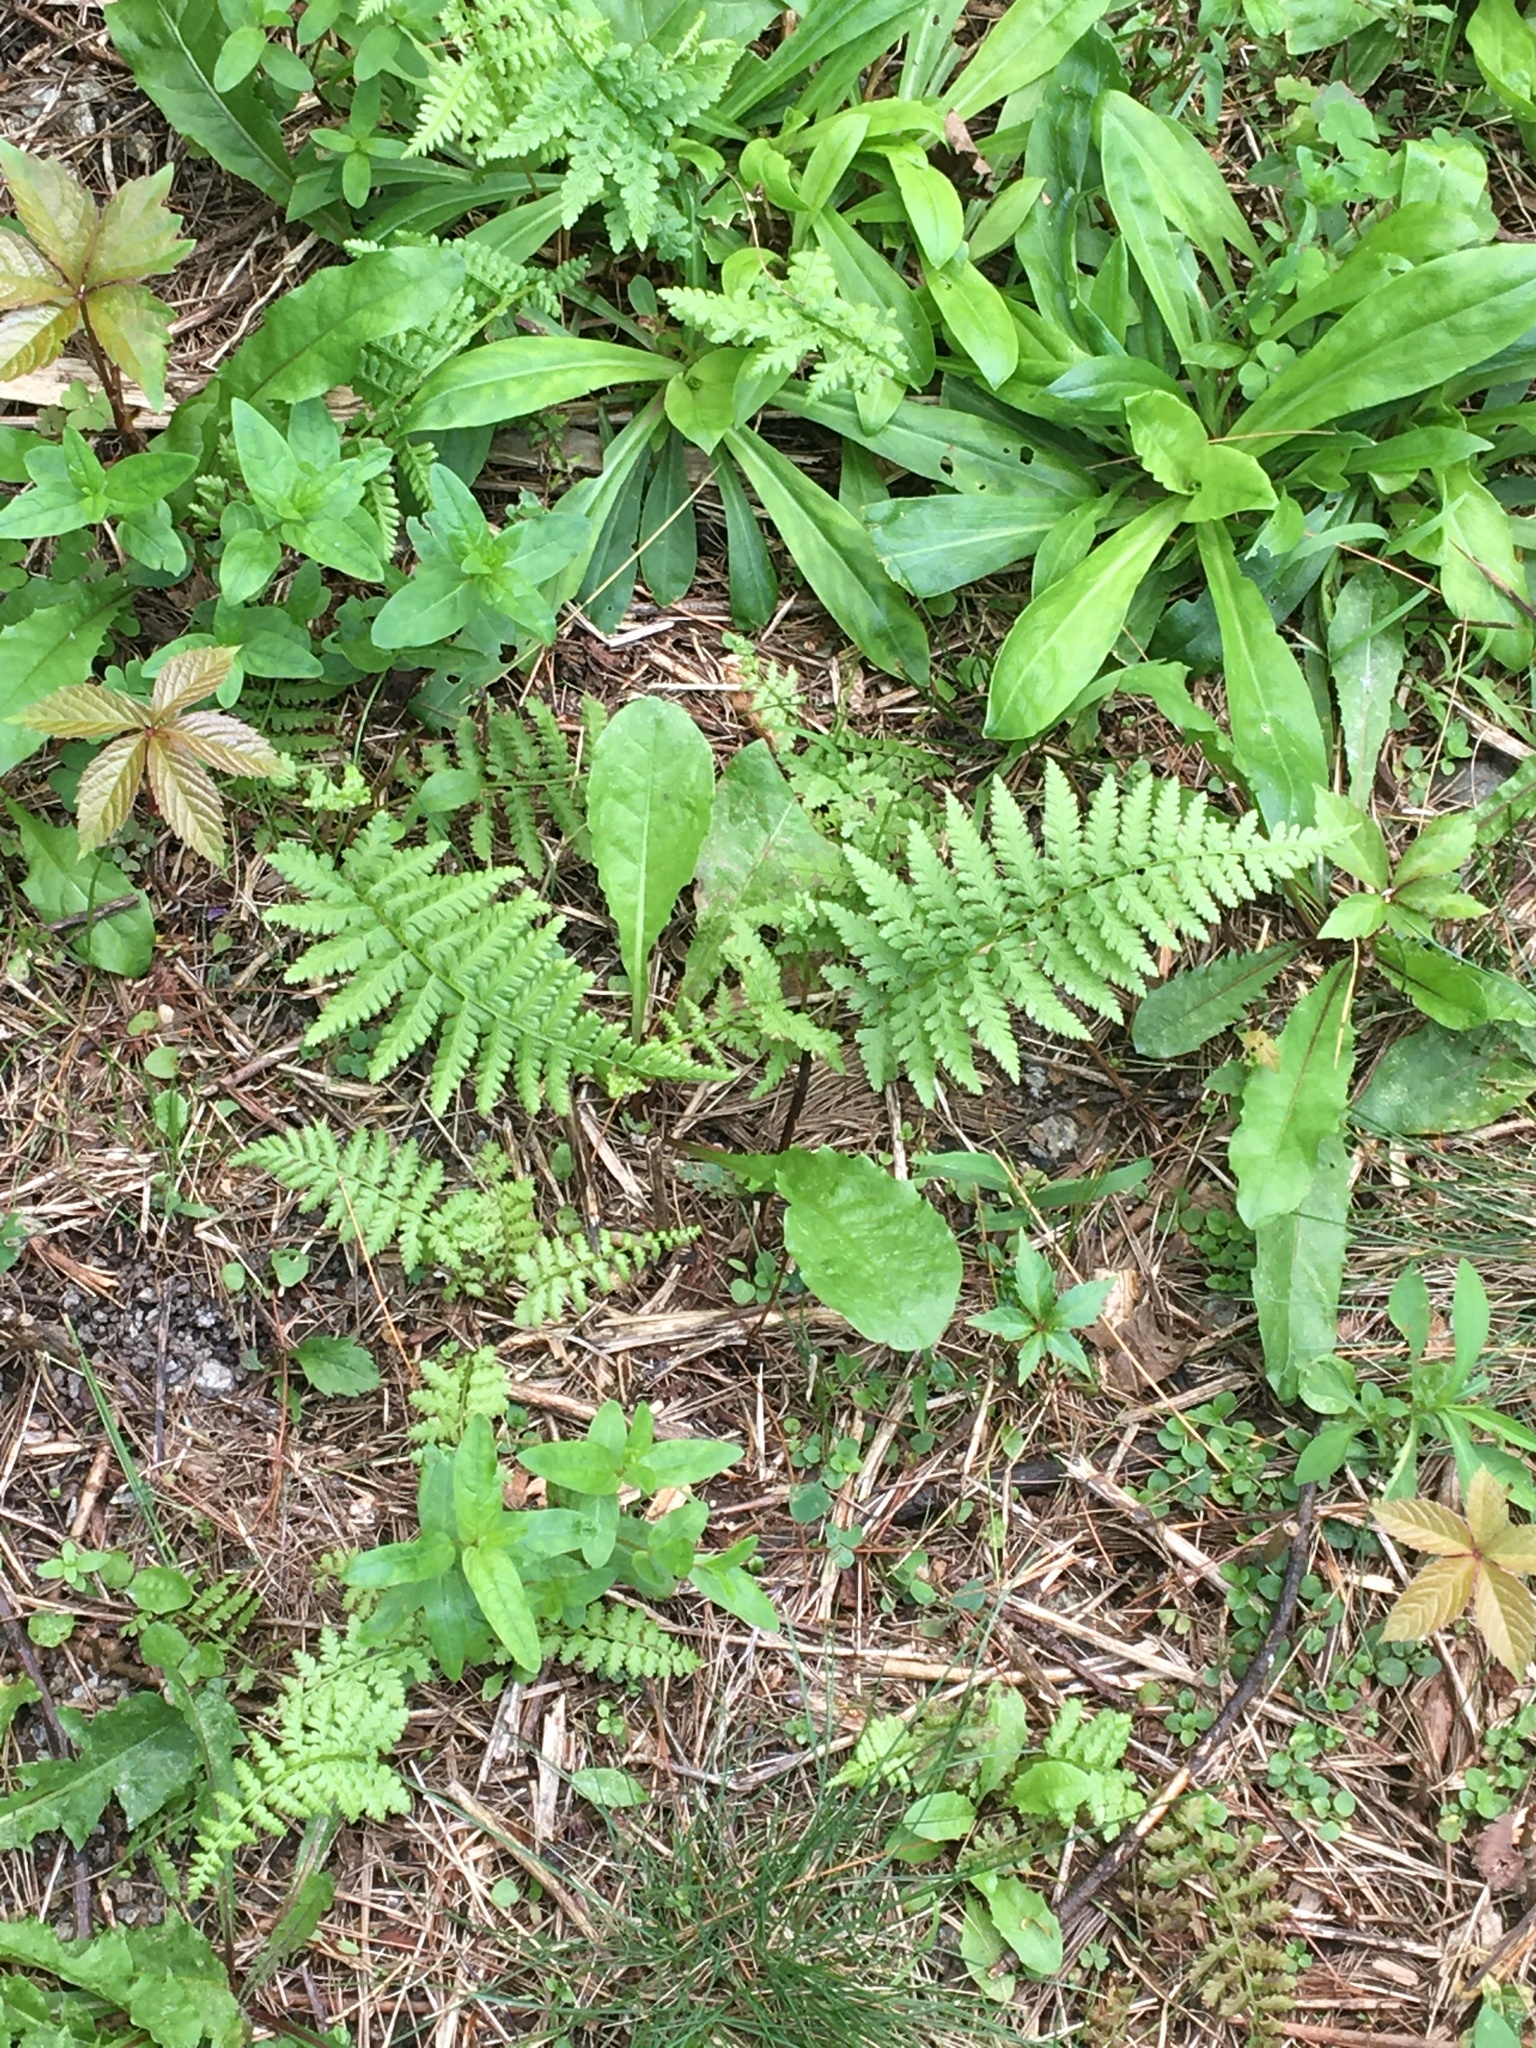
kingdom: Plantae
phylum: Tracheophyta
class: Polypodiopsida
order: Polypodiales
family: Athyriaceae
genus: Athyrium
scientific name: Athyrium angustum
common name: Northern lady fern
